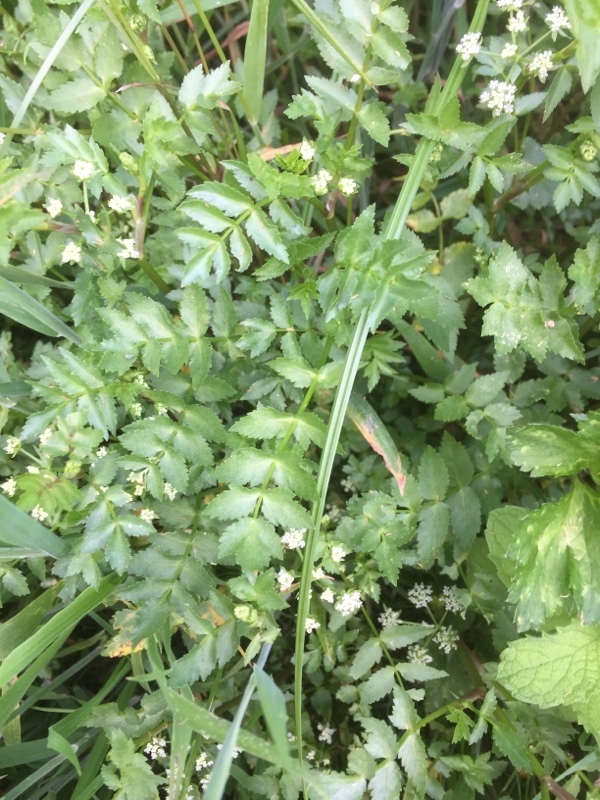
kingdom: Plantae
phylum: Tracheophyta
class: Magnoliopsida
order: Apiales
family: Apiaceae
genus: Helosciadium
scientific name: Helosciadium nodiflorum
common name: Fool's-watercress
